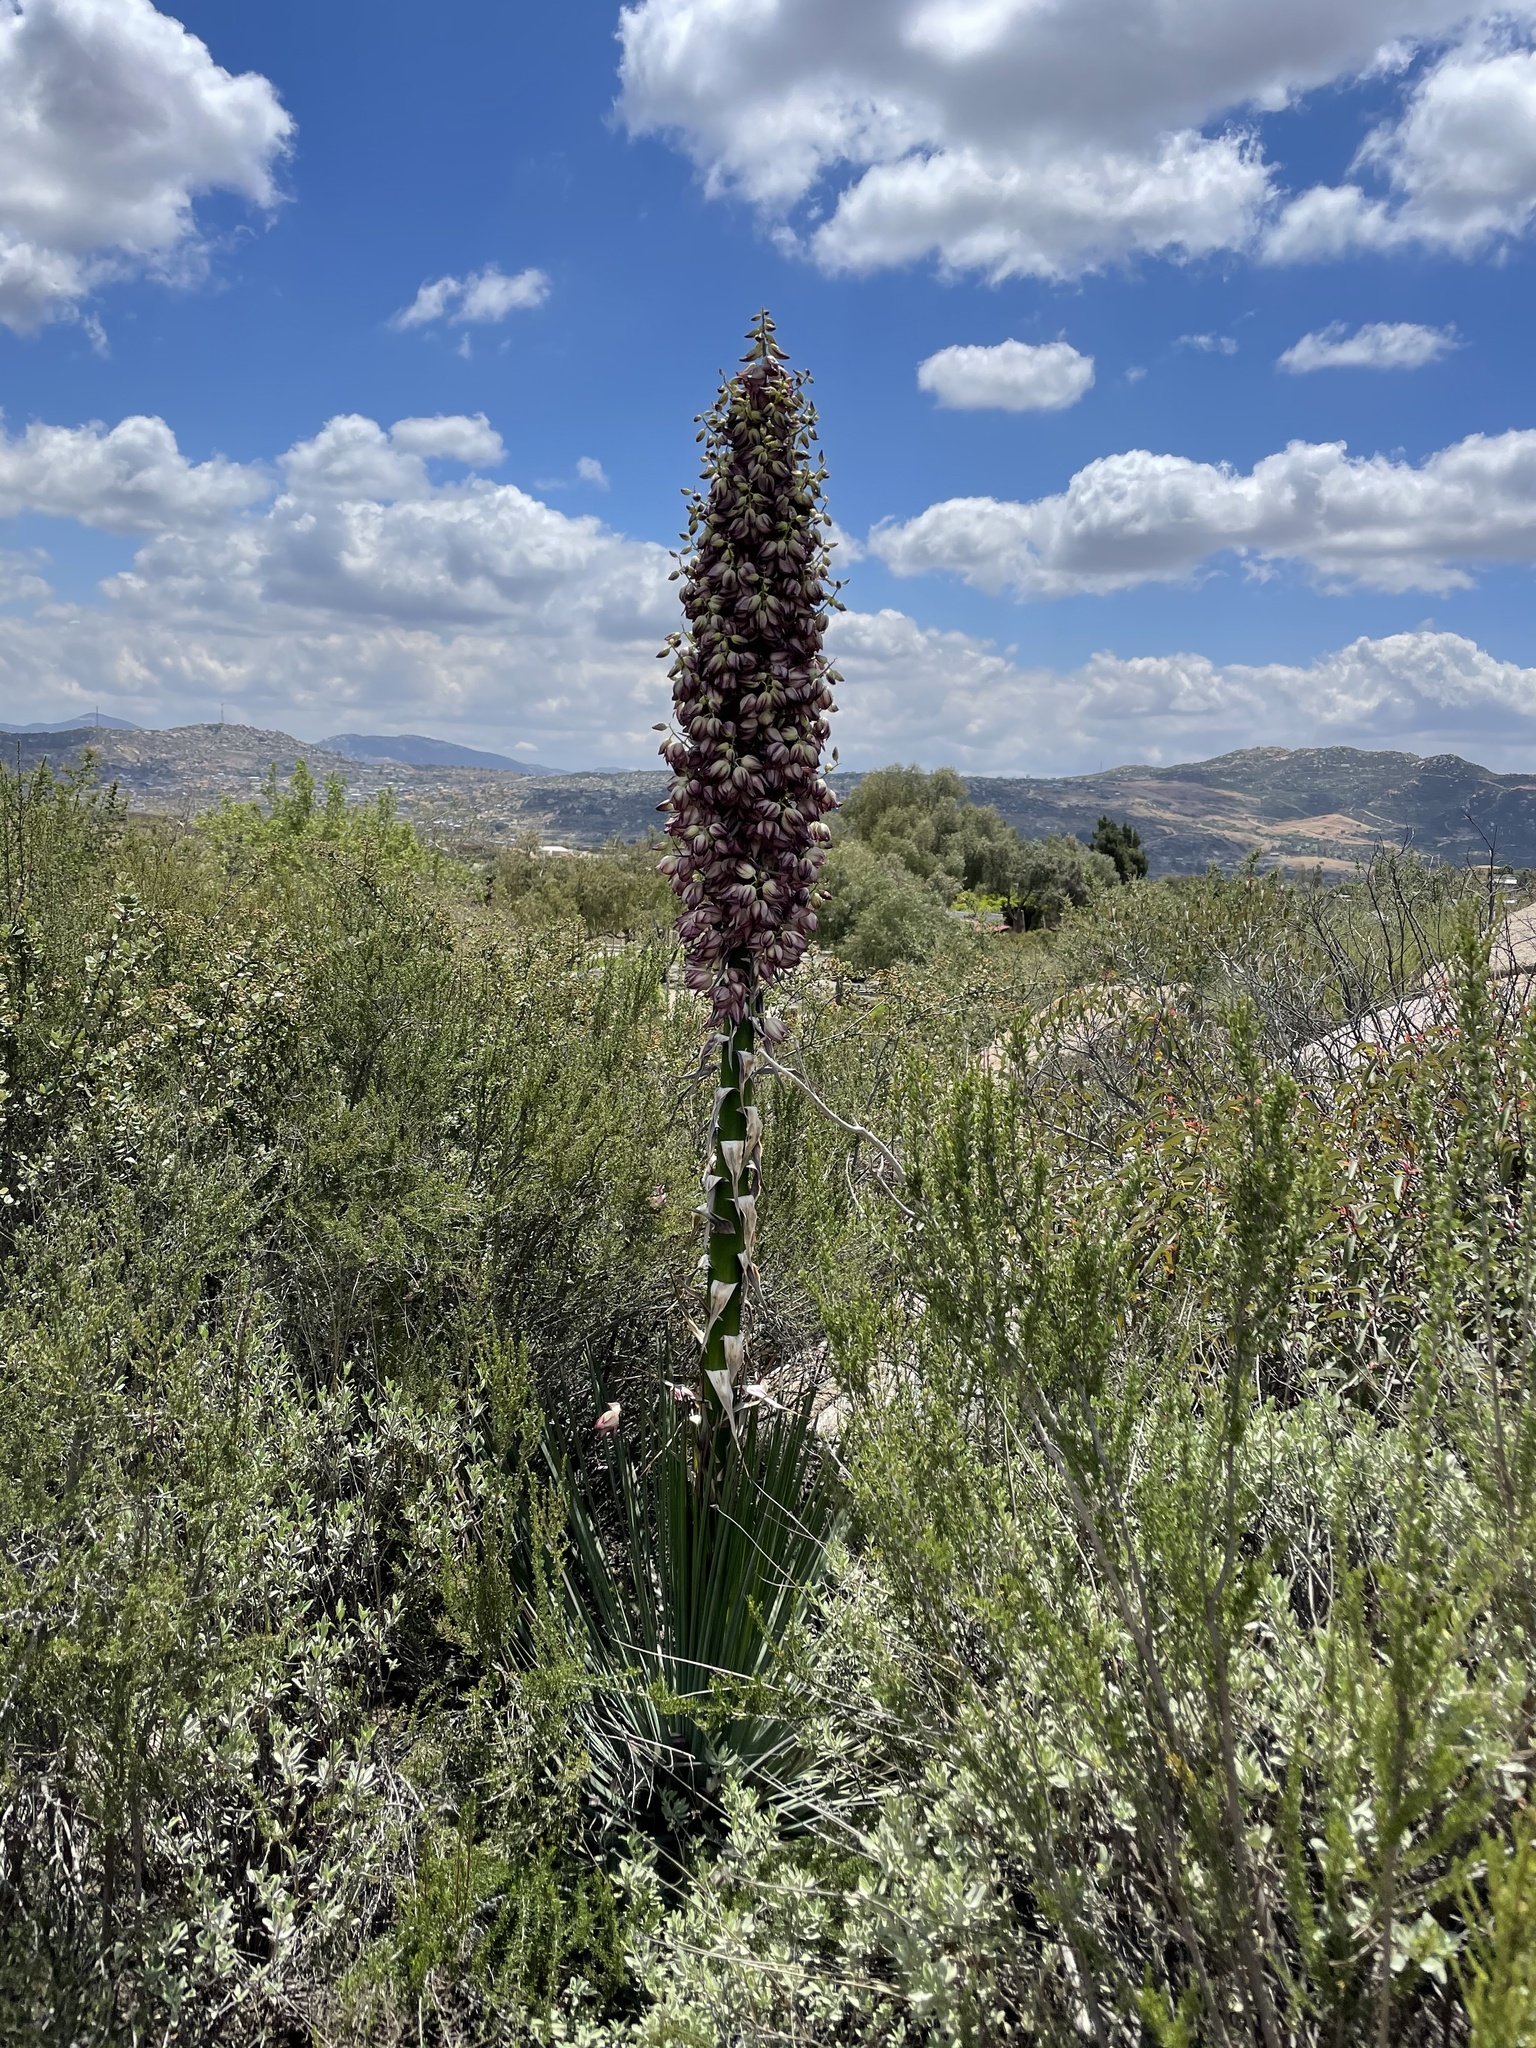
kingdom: Plantae
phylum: Tracheophyta
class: Liliopsida
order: Asparagales
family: Asparagaceae
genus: Hesperoyucca
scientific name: Hesperoyucca whipplei
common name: Our lord's-candle
